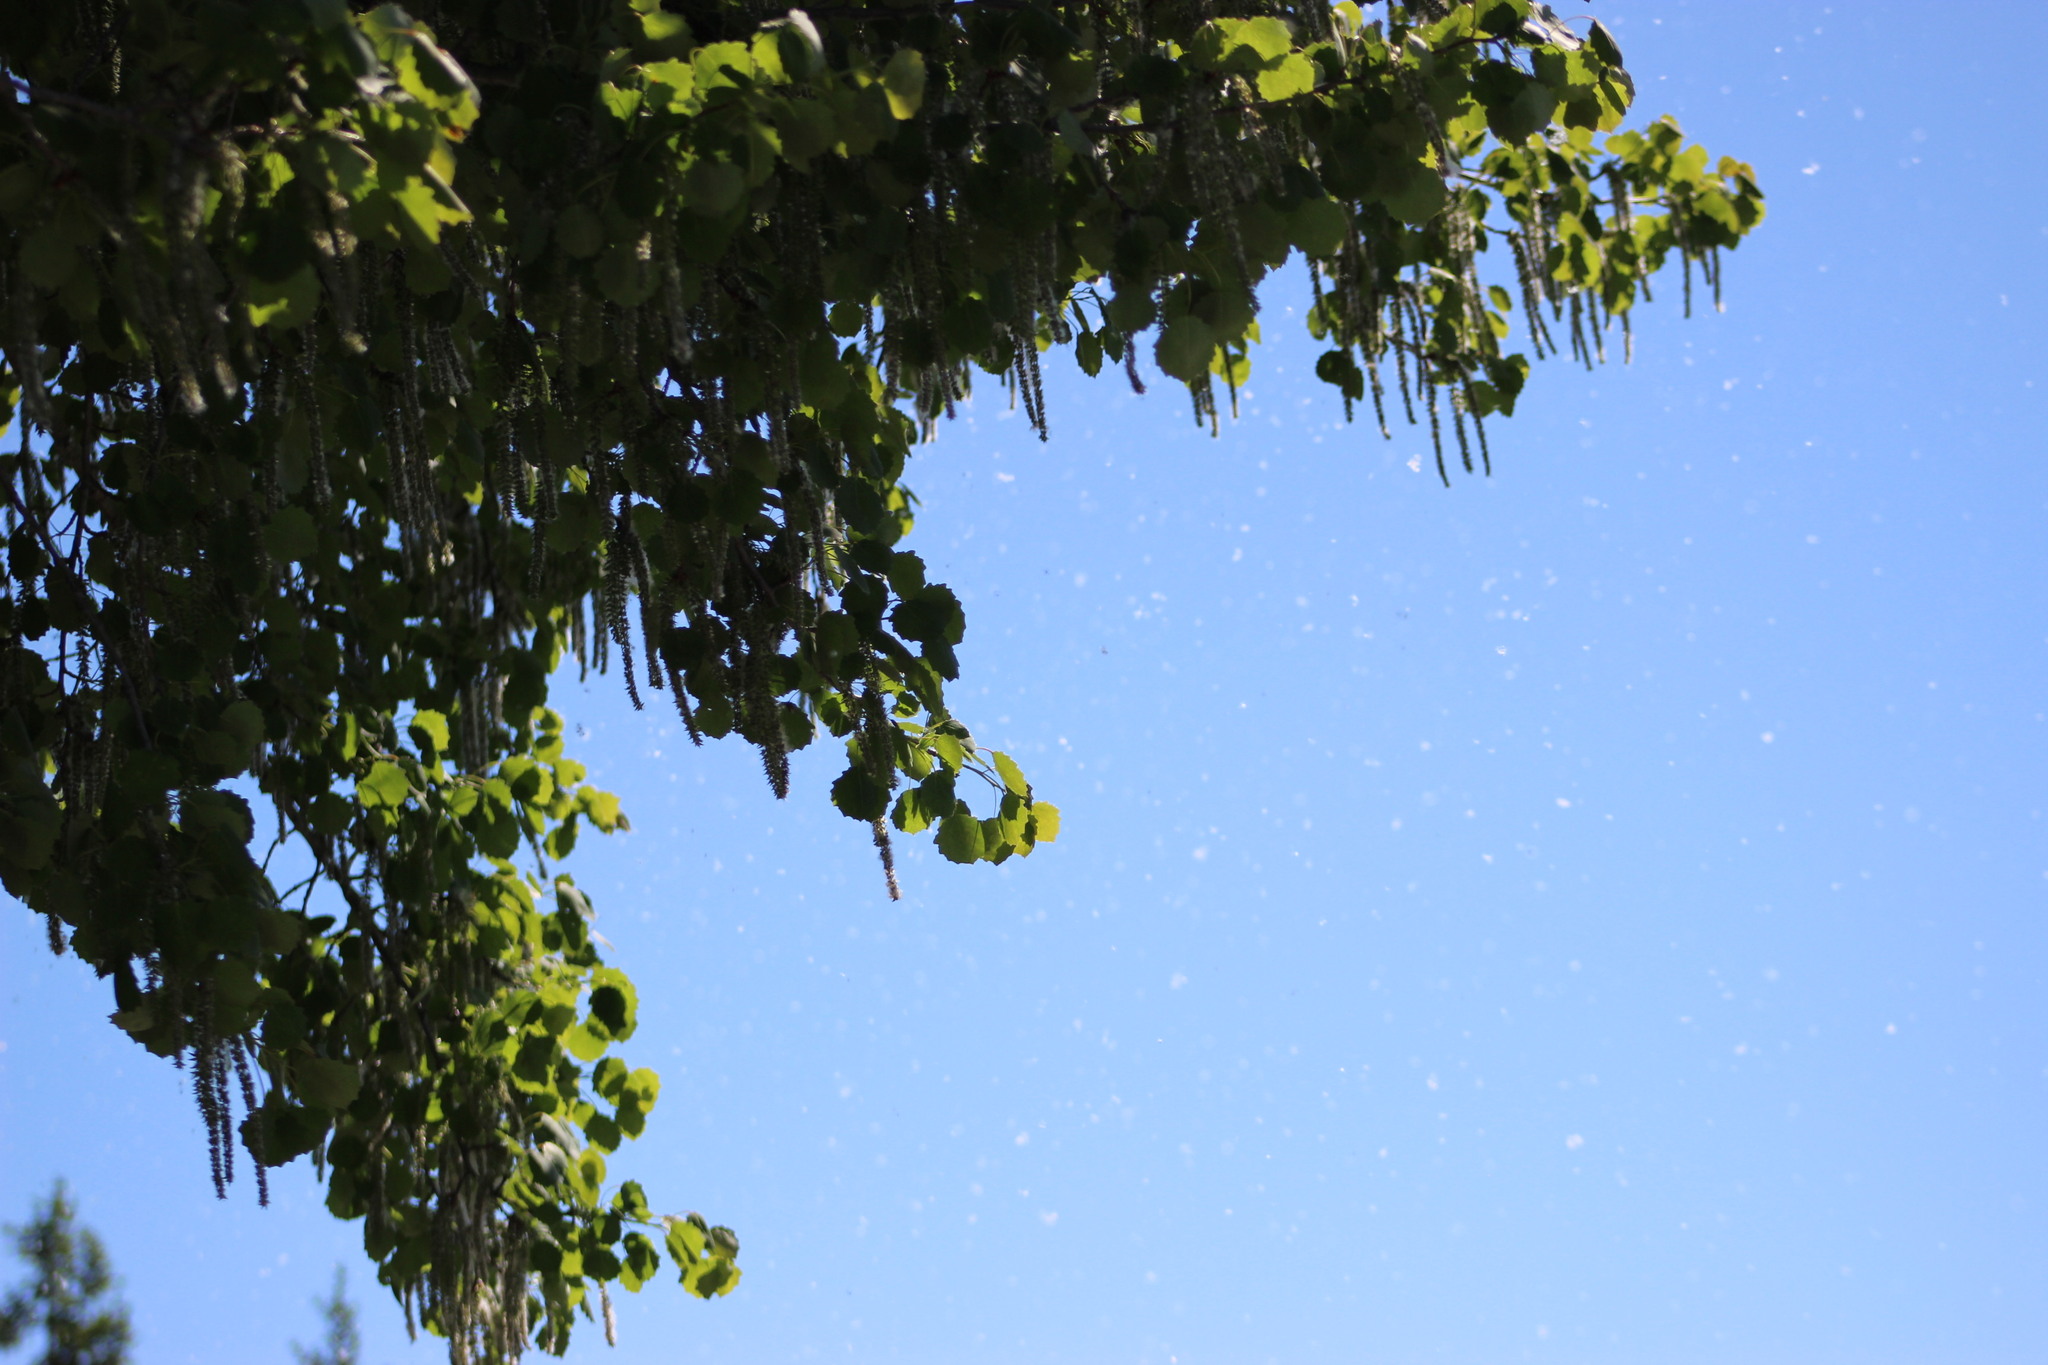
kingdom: Plantae
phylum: Tracheophyta
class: Magnoliopsida
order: Malpighiales
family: Salicaceae
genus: Populus
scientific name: Populus tremula
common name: European aspen
